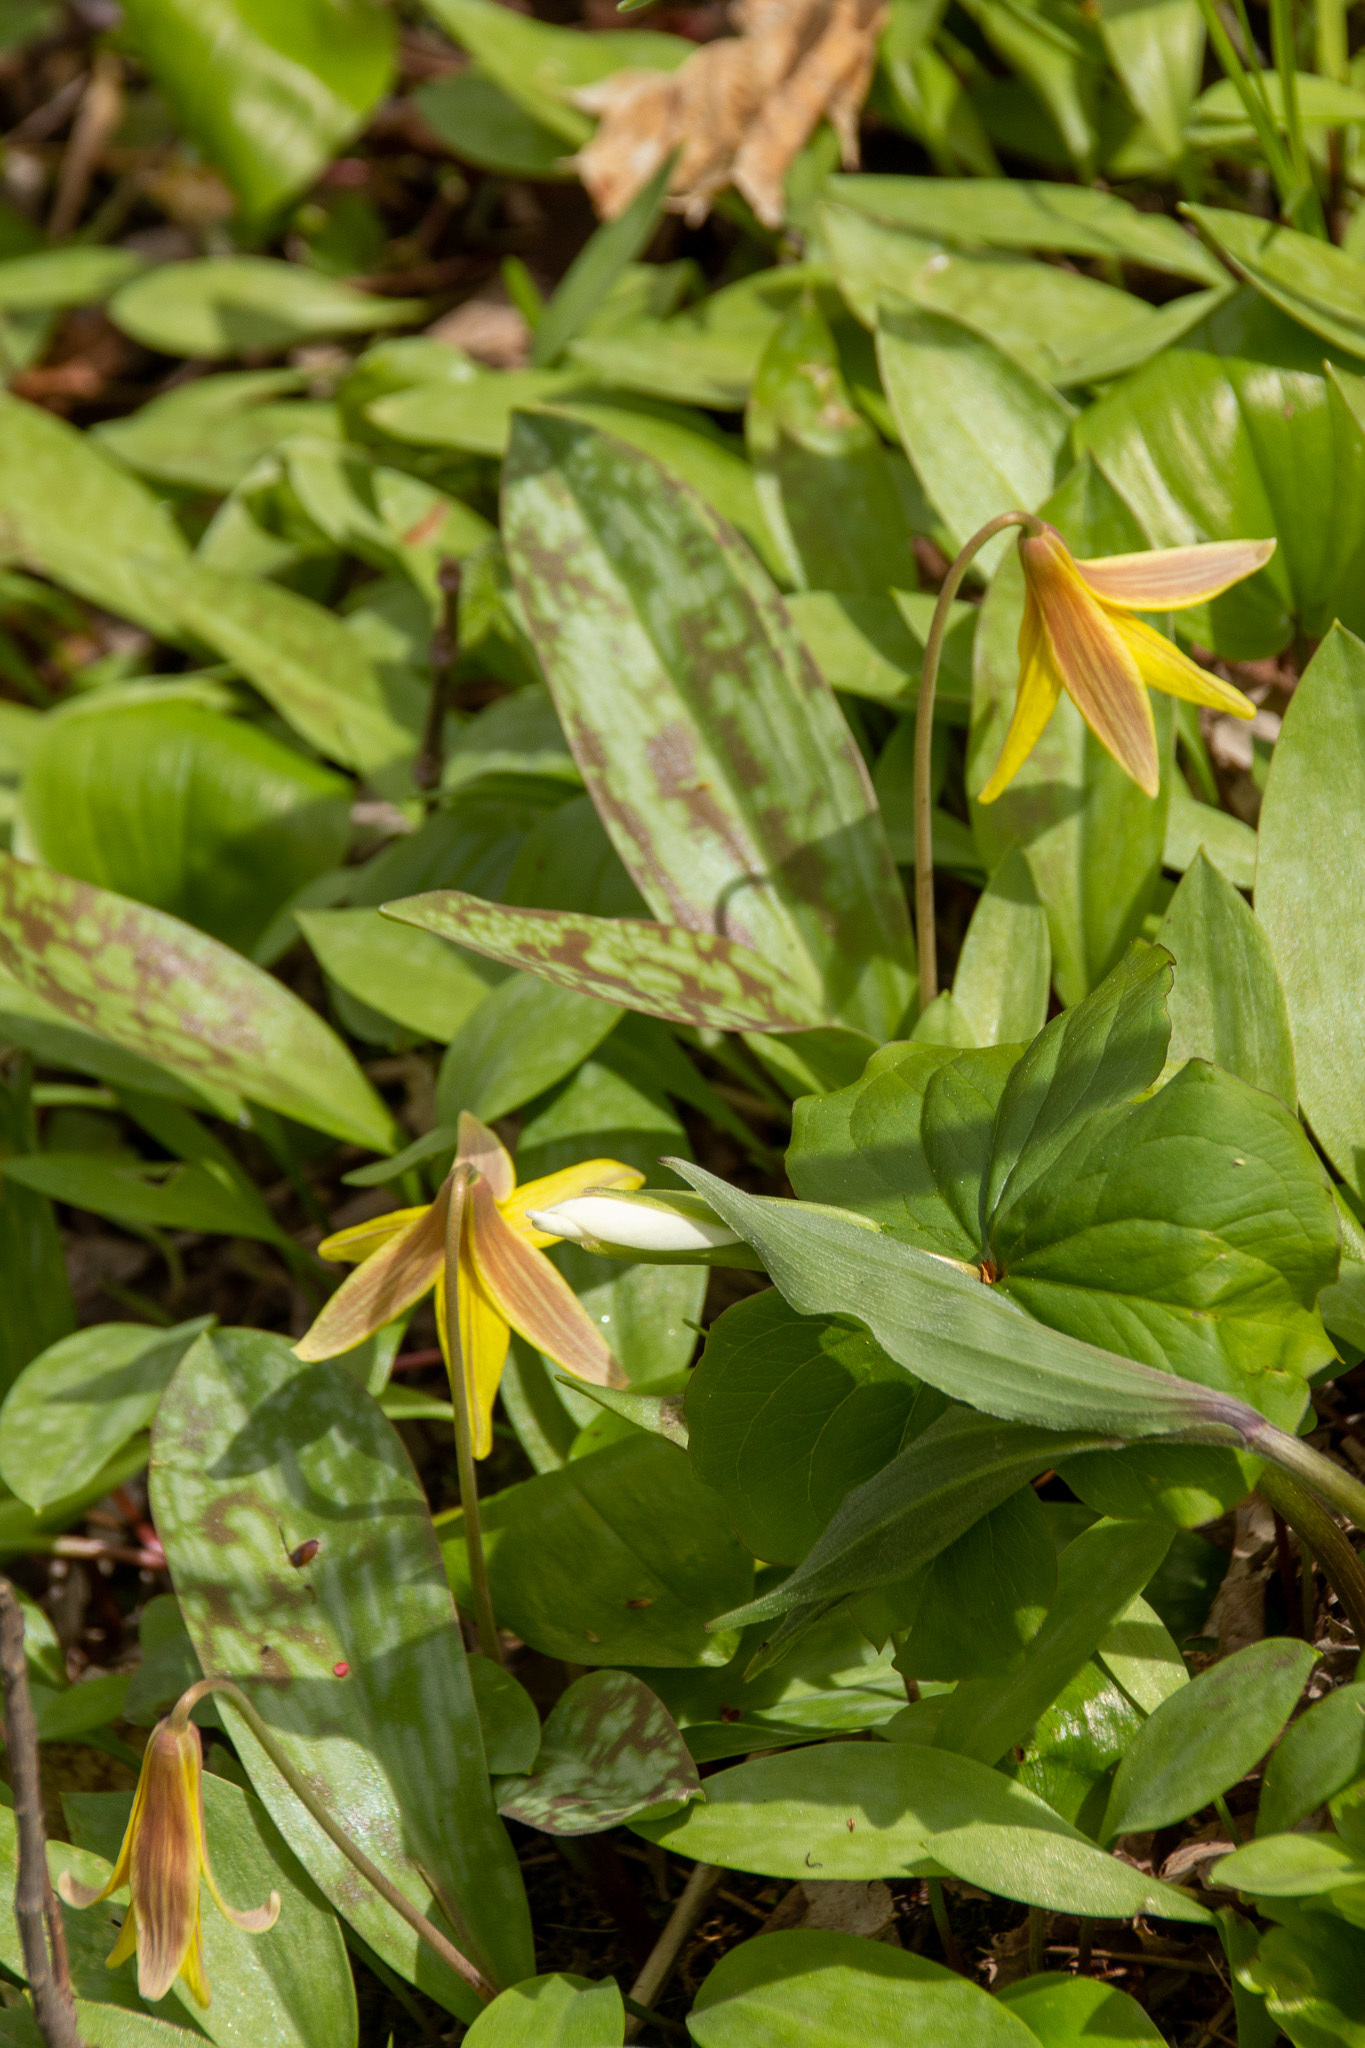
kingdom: Plantae
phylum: Tracheophyta
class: Liliopsida
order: Liliales
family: Liliaceae
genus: Erythronium
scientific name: Erythronium americanum
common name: Yellow adder's-tongue
